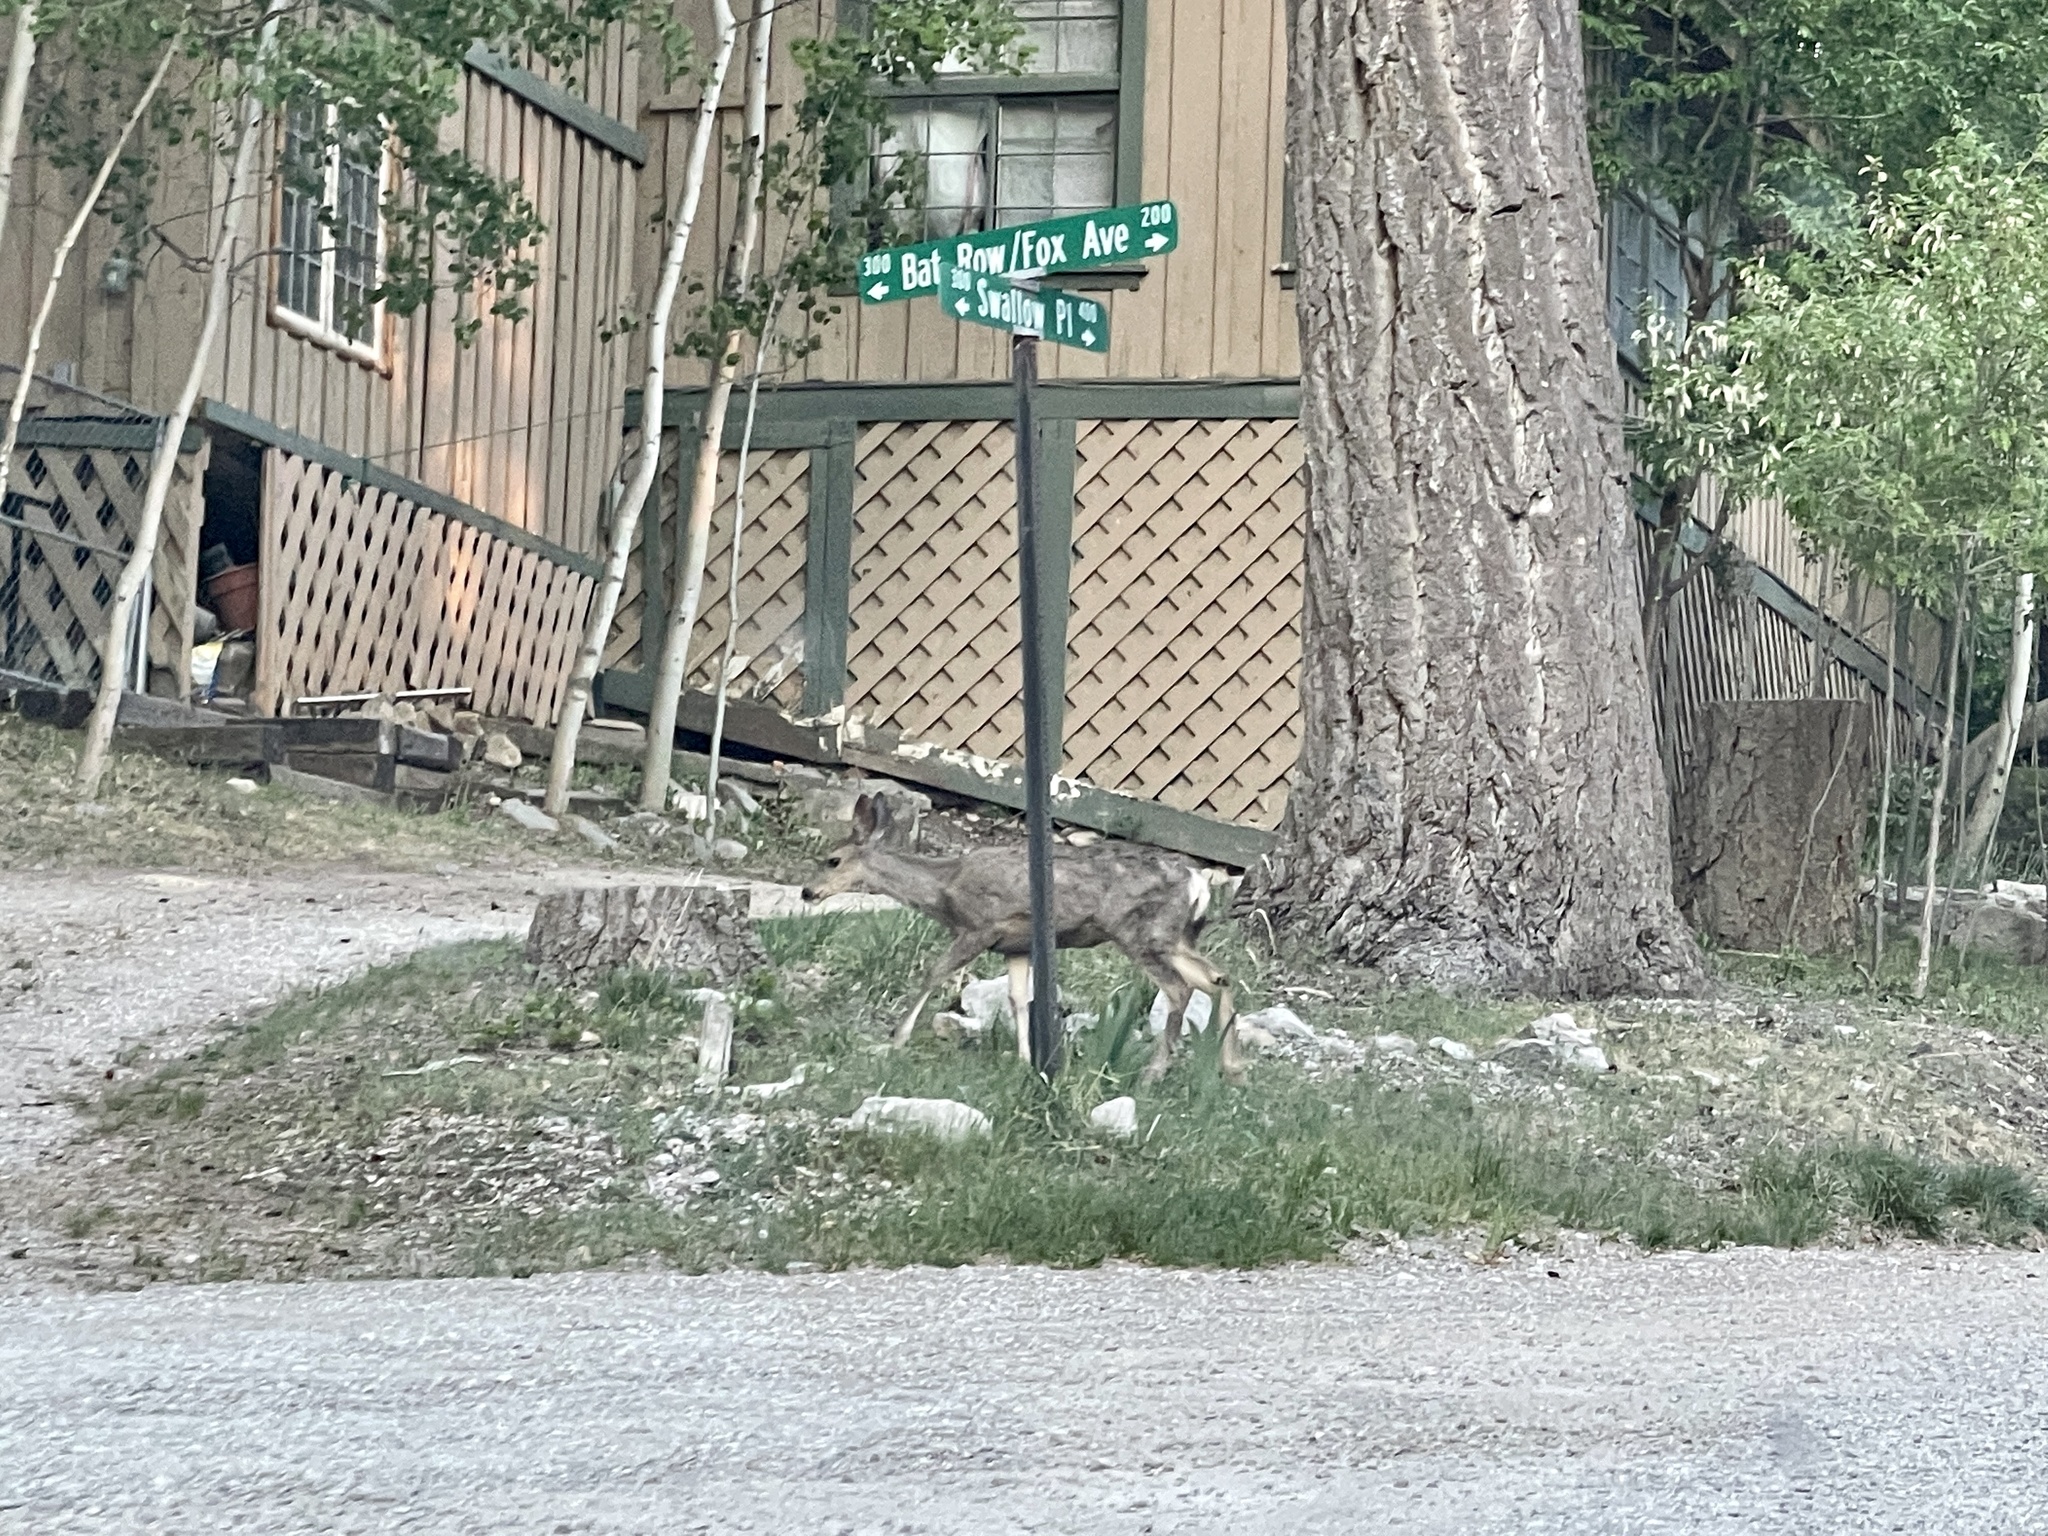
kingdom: Animalia
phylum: Chordata
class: Mammalia
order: Artiodactyla
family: Cervidae
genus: Odocoileus
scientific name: Odocoileus hemionus
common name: Mule deer
